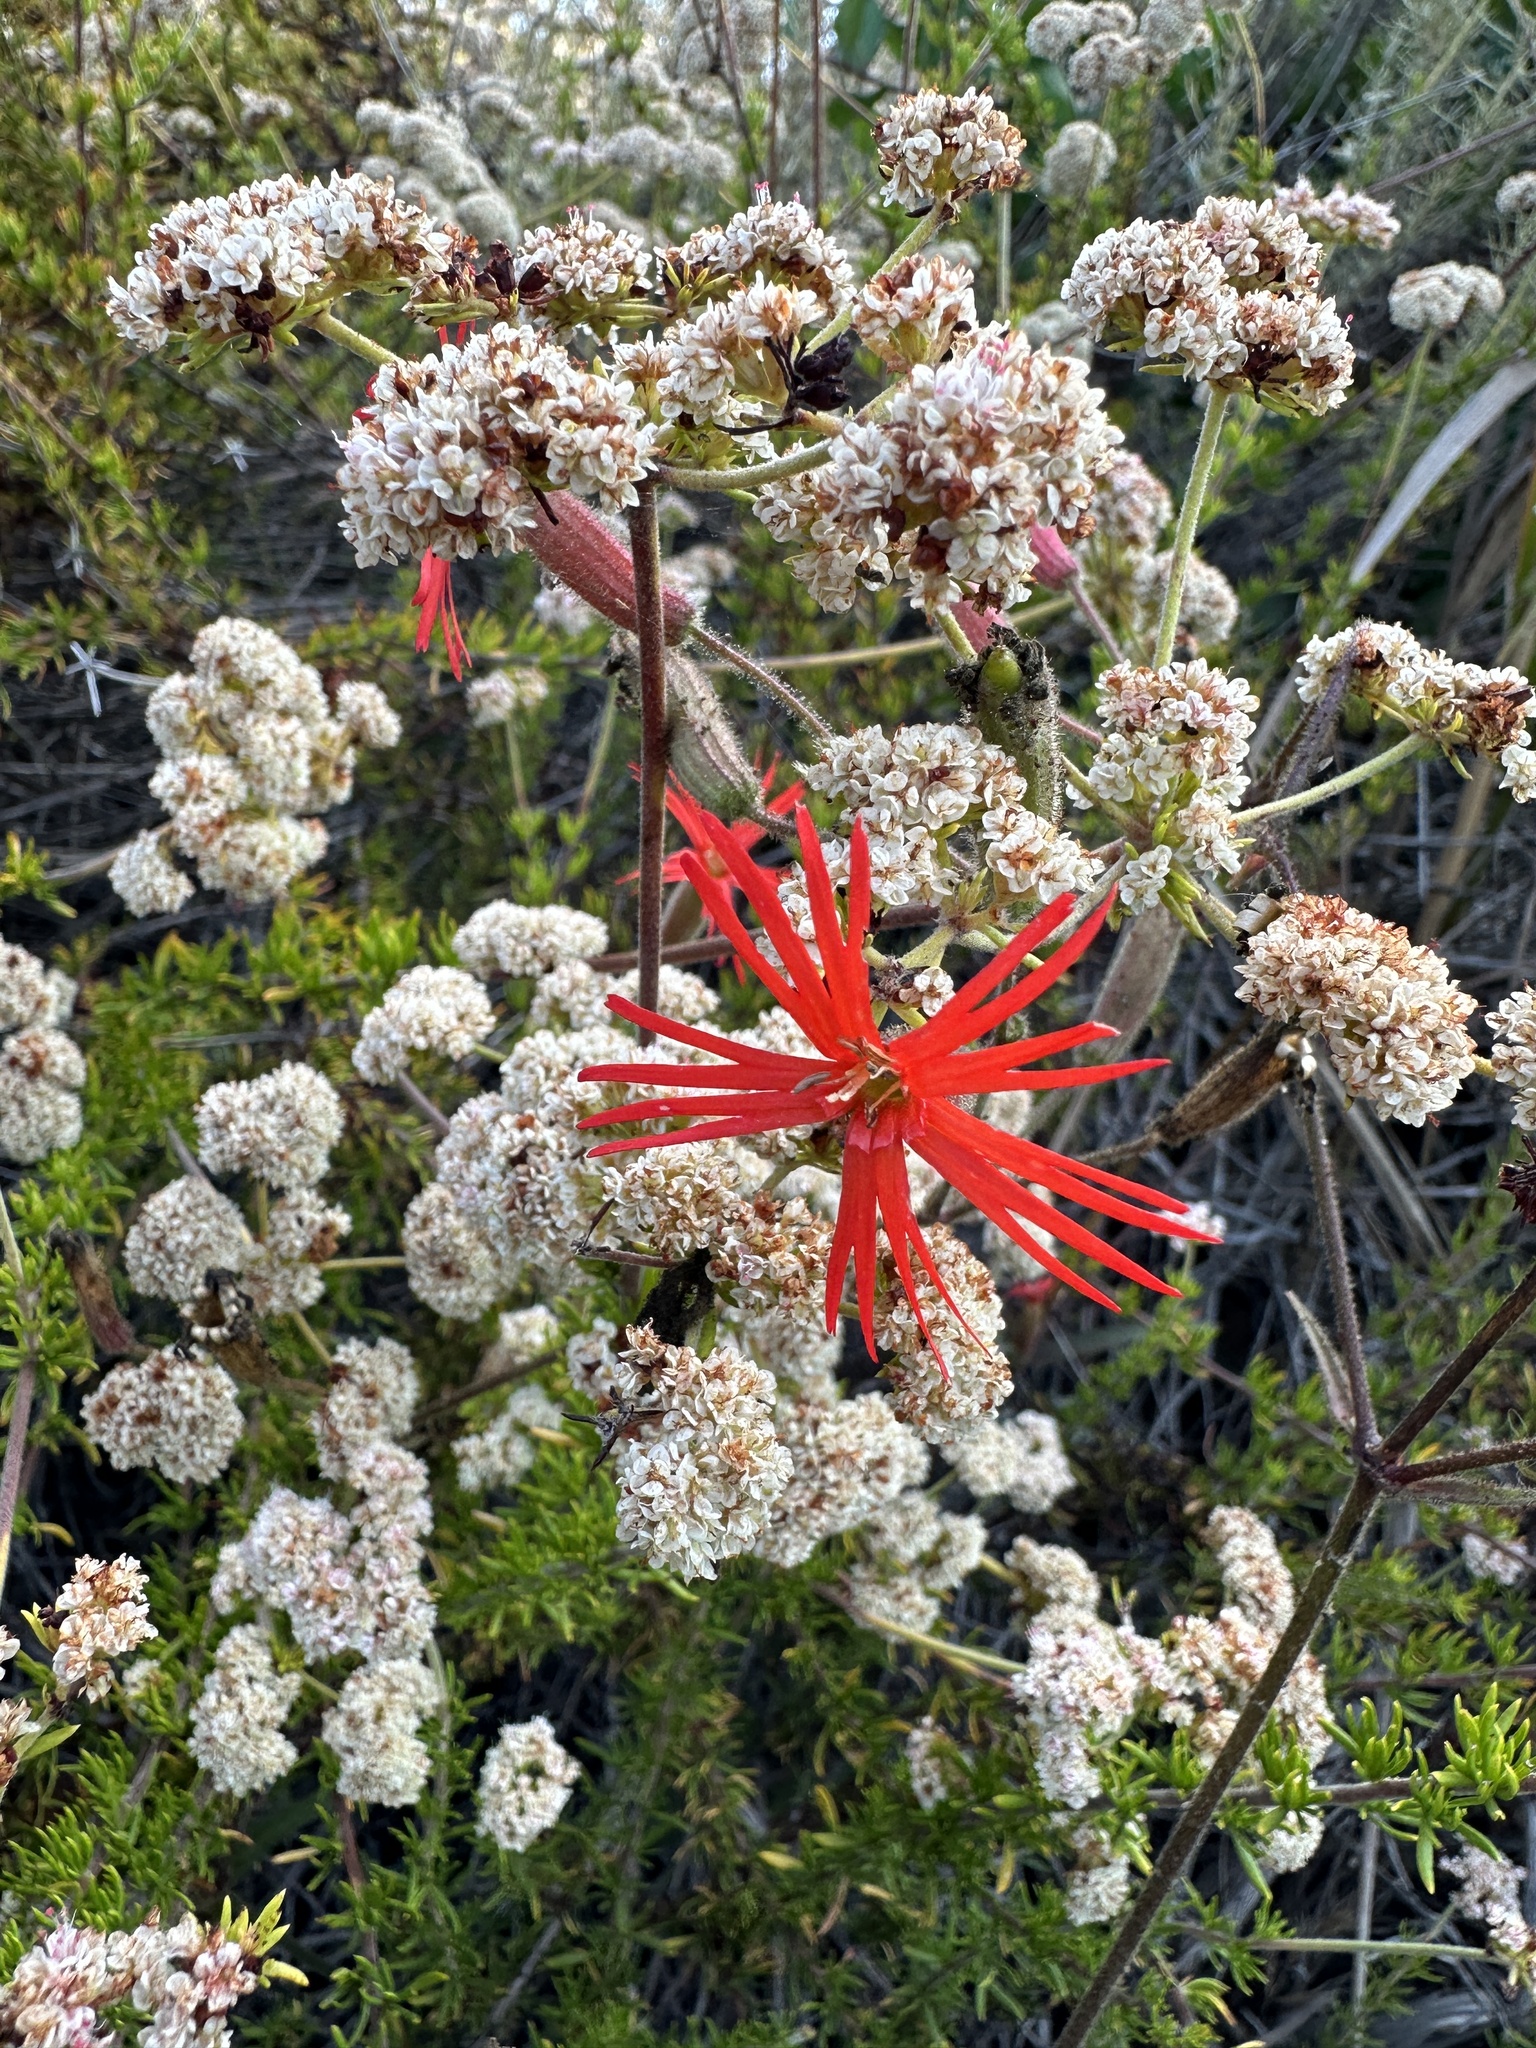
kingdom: Plantae
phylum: Tracheophyta
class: Magnoliopsida
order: Caryophyllales
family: Caryophyllaceae
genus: Silene
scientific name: Silene laciniata
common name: Indian-pink
